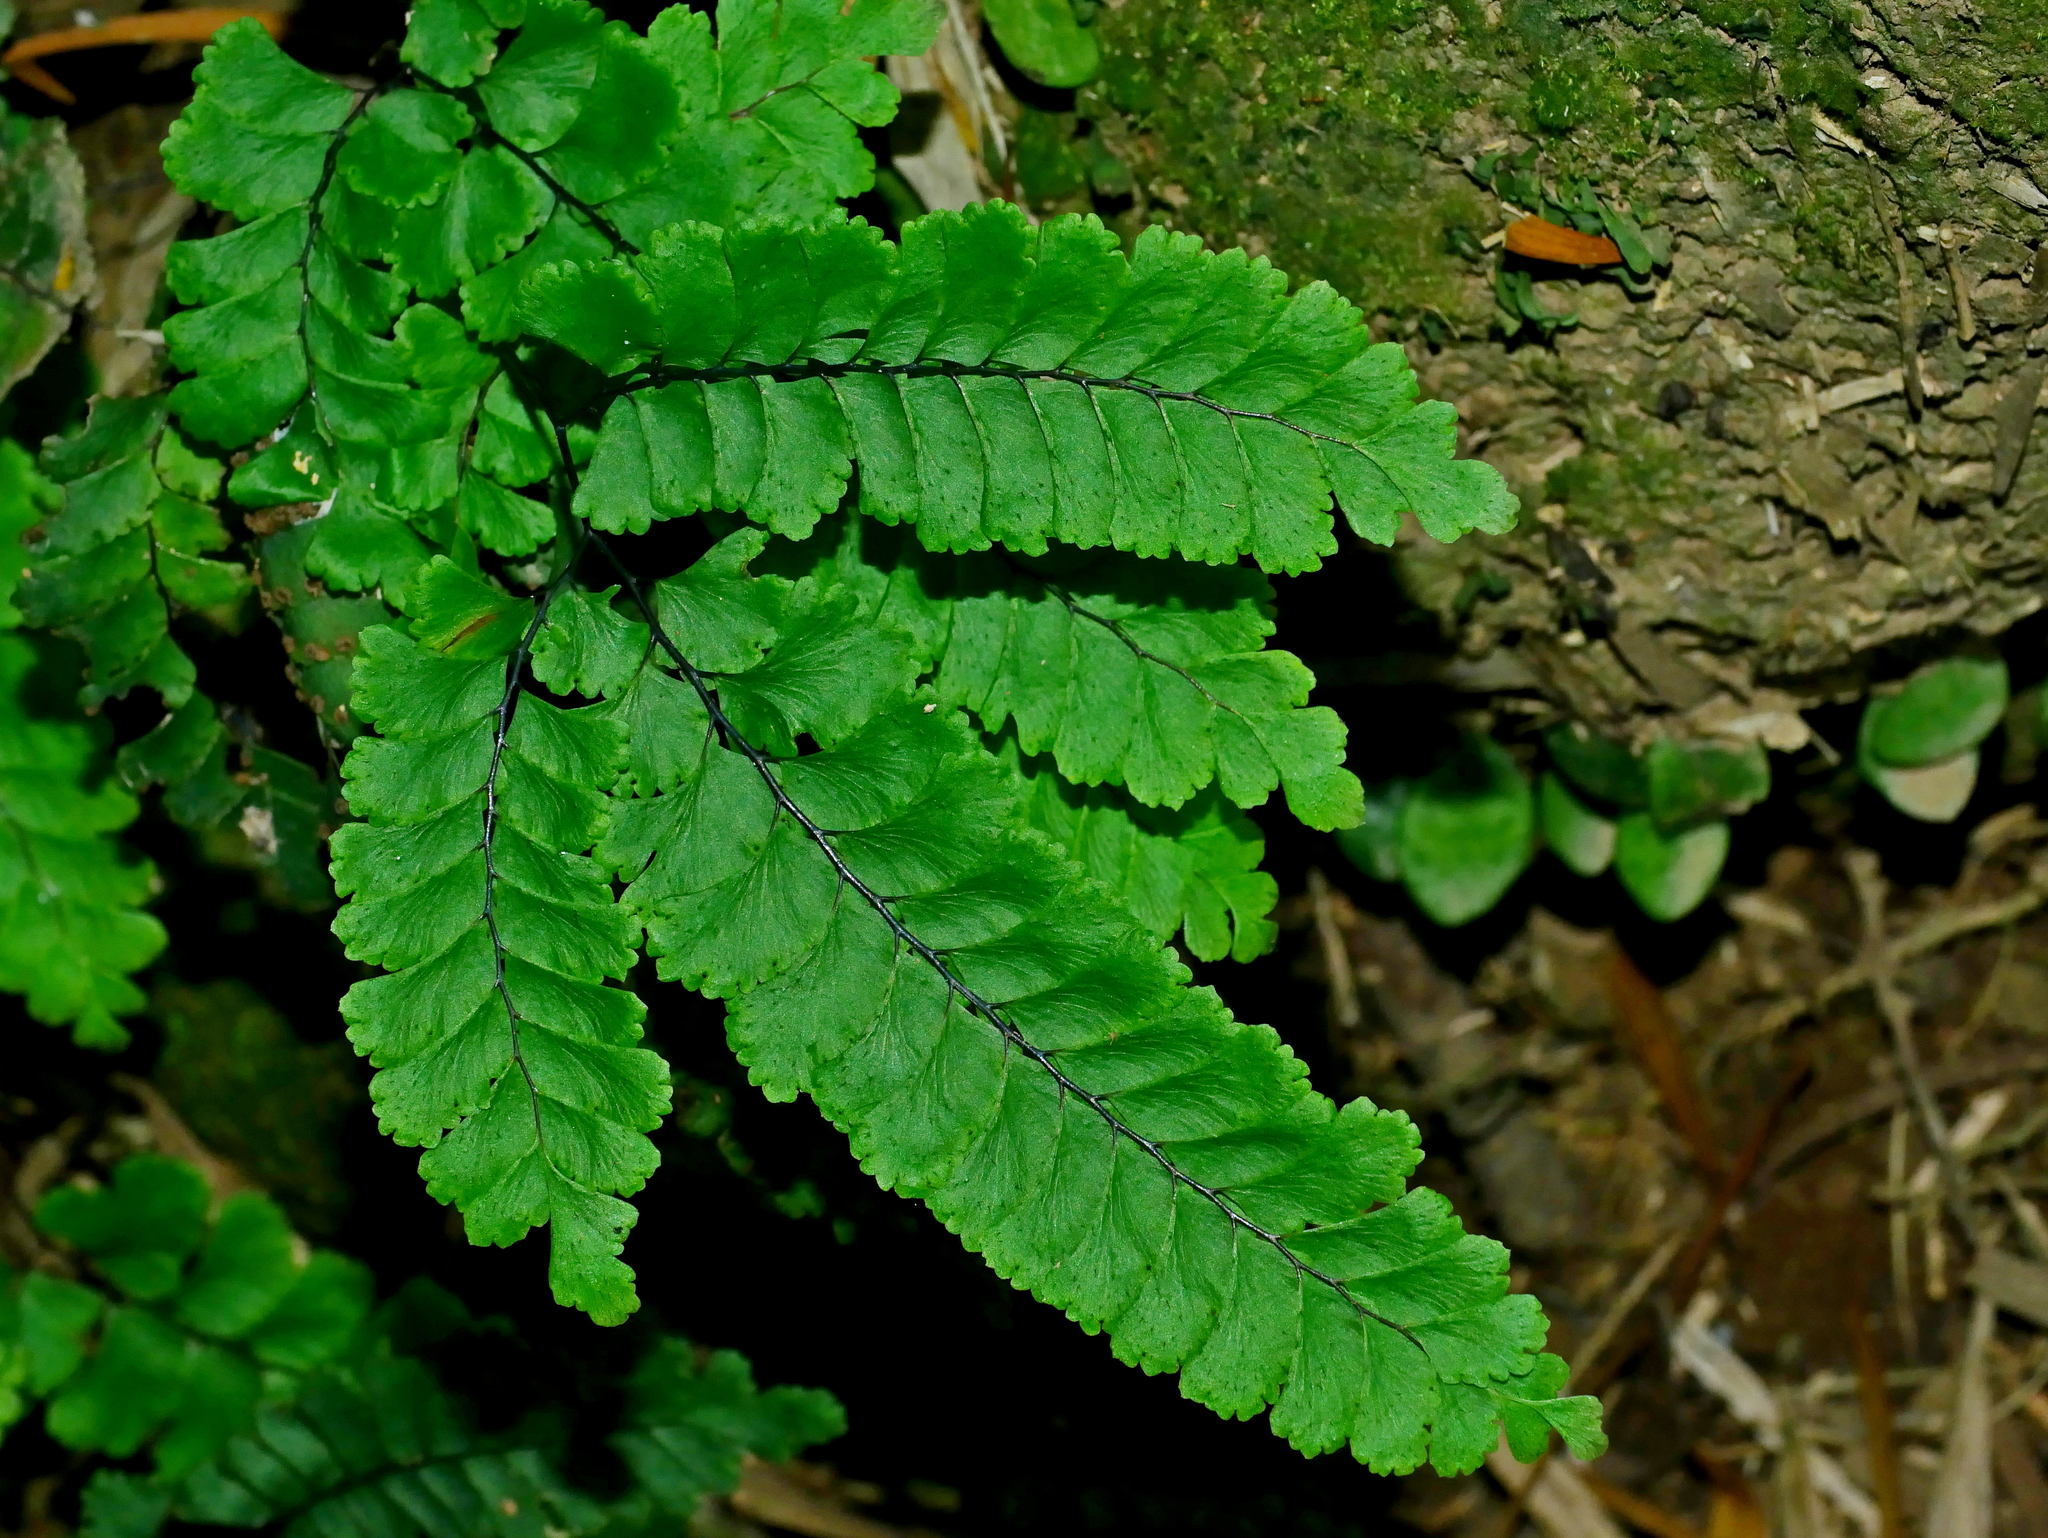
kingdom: Plantae
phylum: Tracheophyta
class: Polypodiopsida
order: Polypodiales
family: Pteridaceae
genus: Adiantum
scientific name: Adiantum diaphanum
